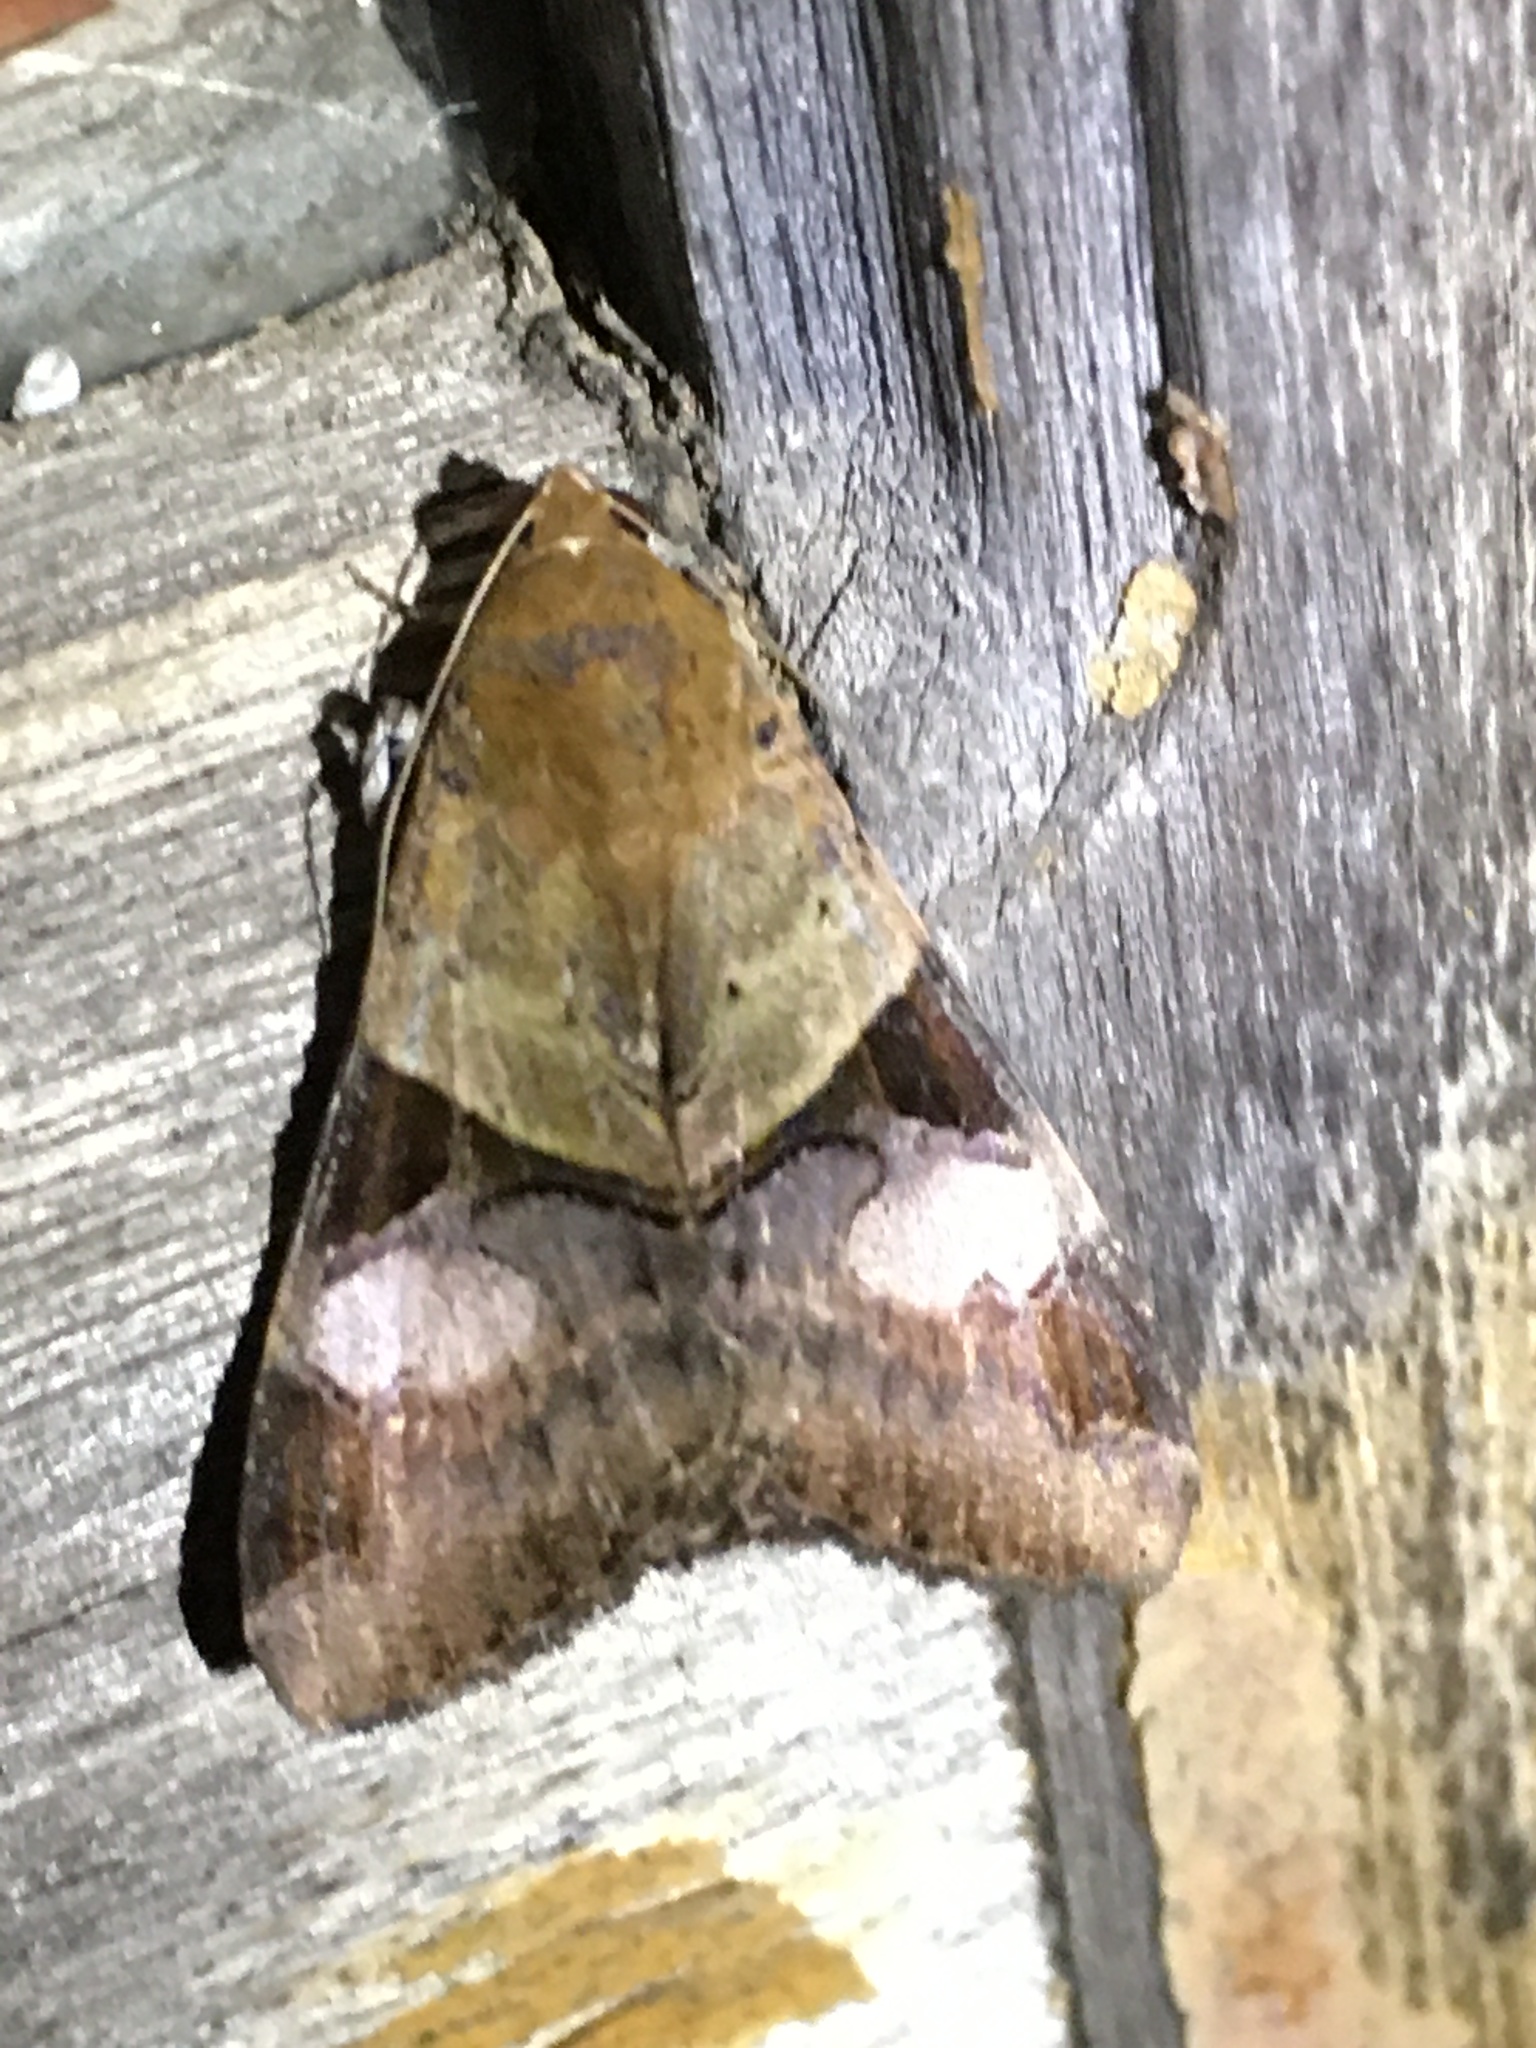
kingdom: Animalia
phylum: Arthropoda
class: Insecta
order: Lepidoptera
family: Erebidae
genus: Melipotis
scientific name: Melipotis fasciolaris
